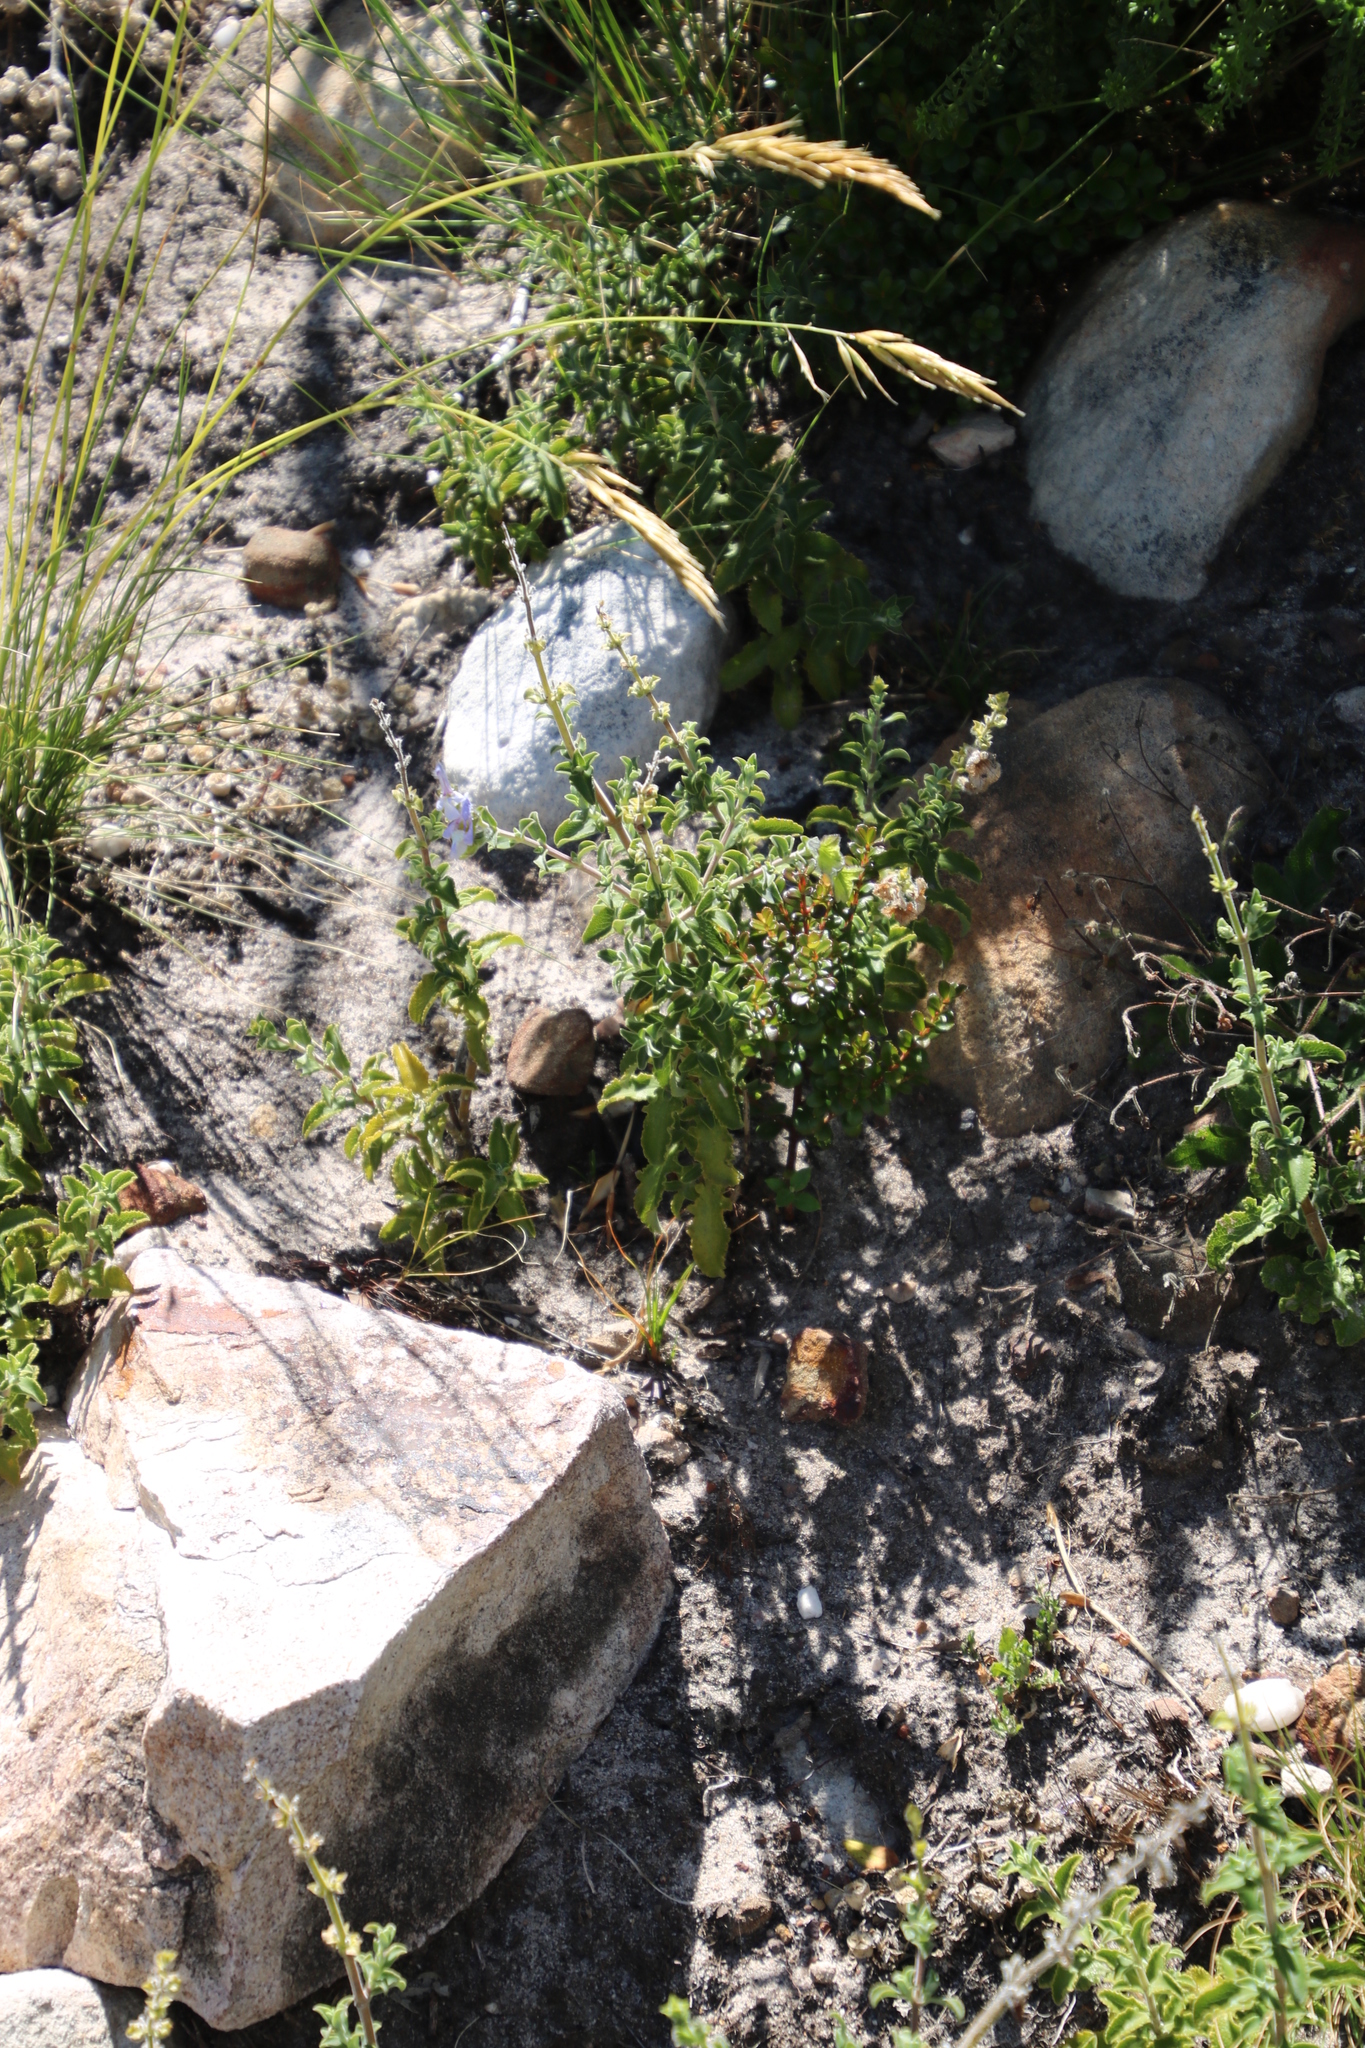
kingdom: Plantae
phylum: Tracheophyta
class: Magnoliopsida
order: Lamiales
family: Lamiaceae
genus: Salvia
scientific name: Salvia africana
